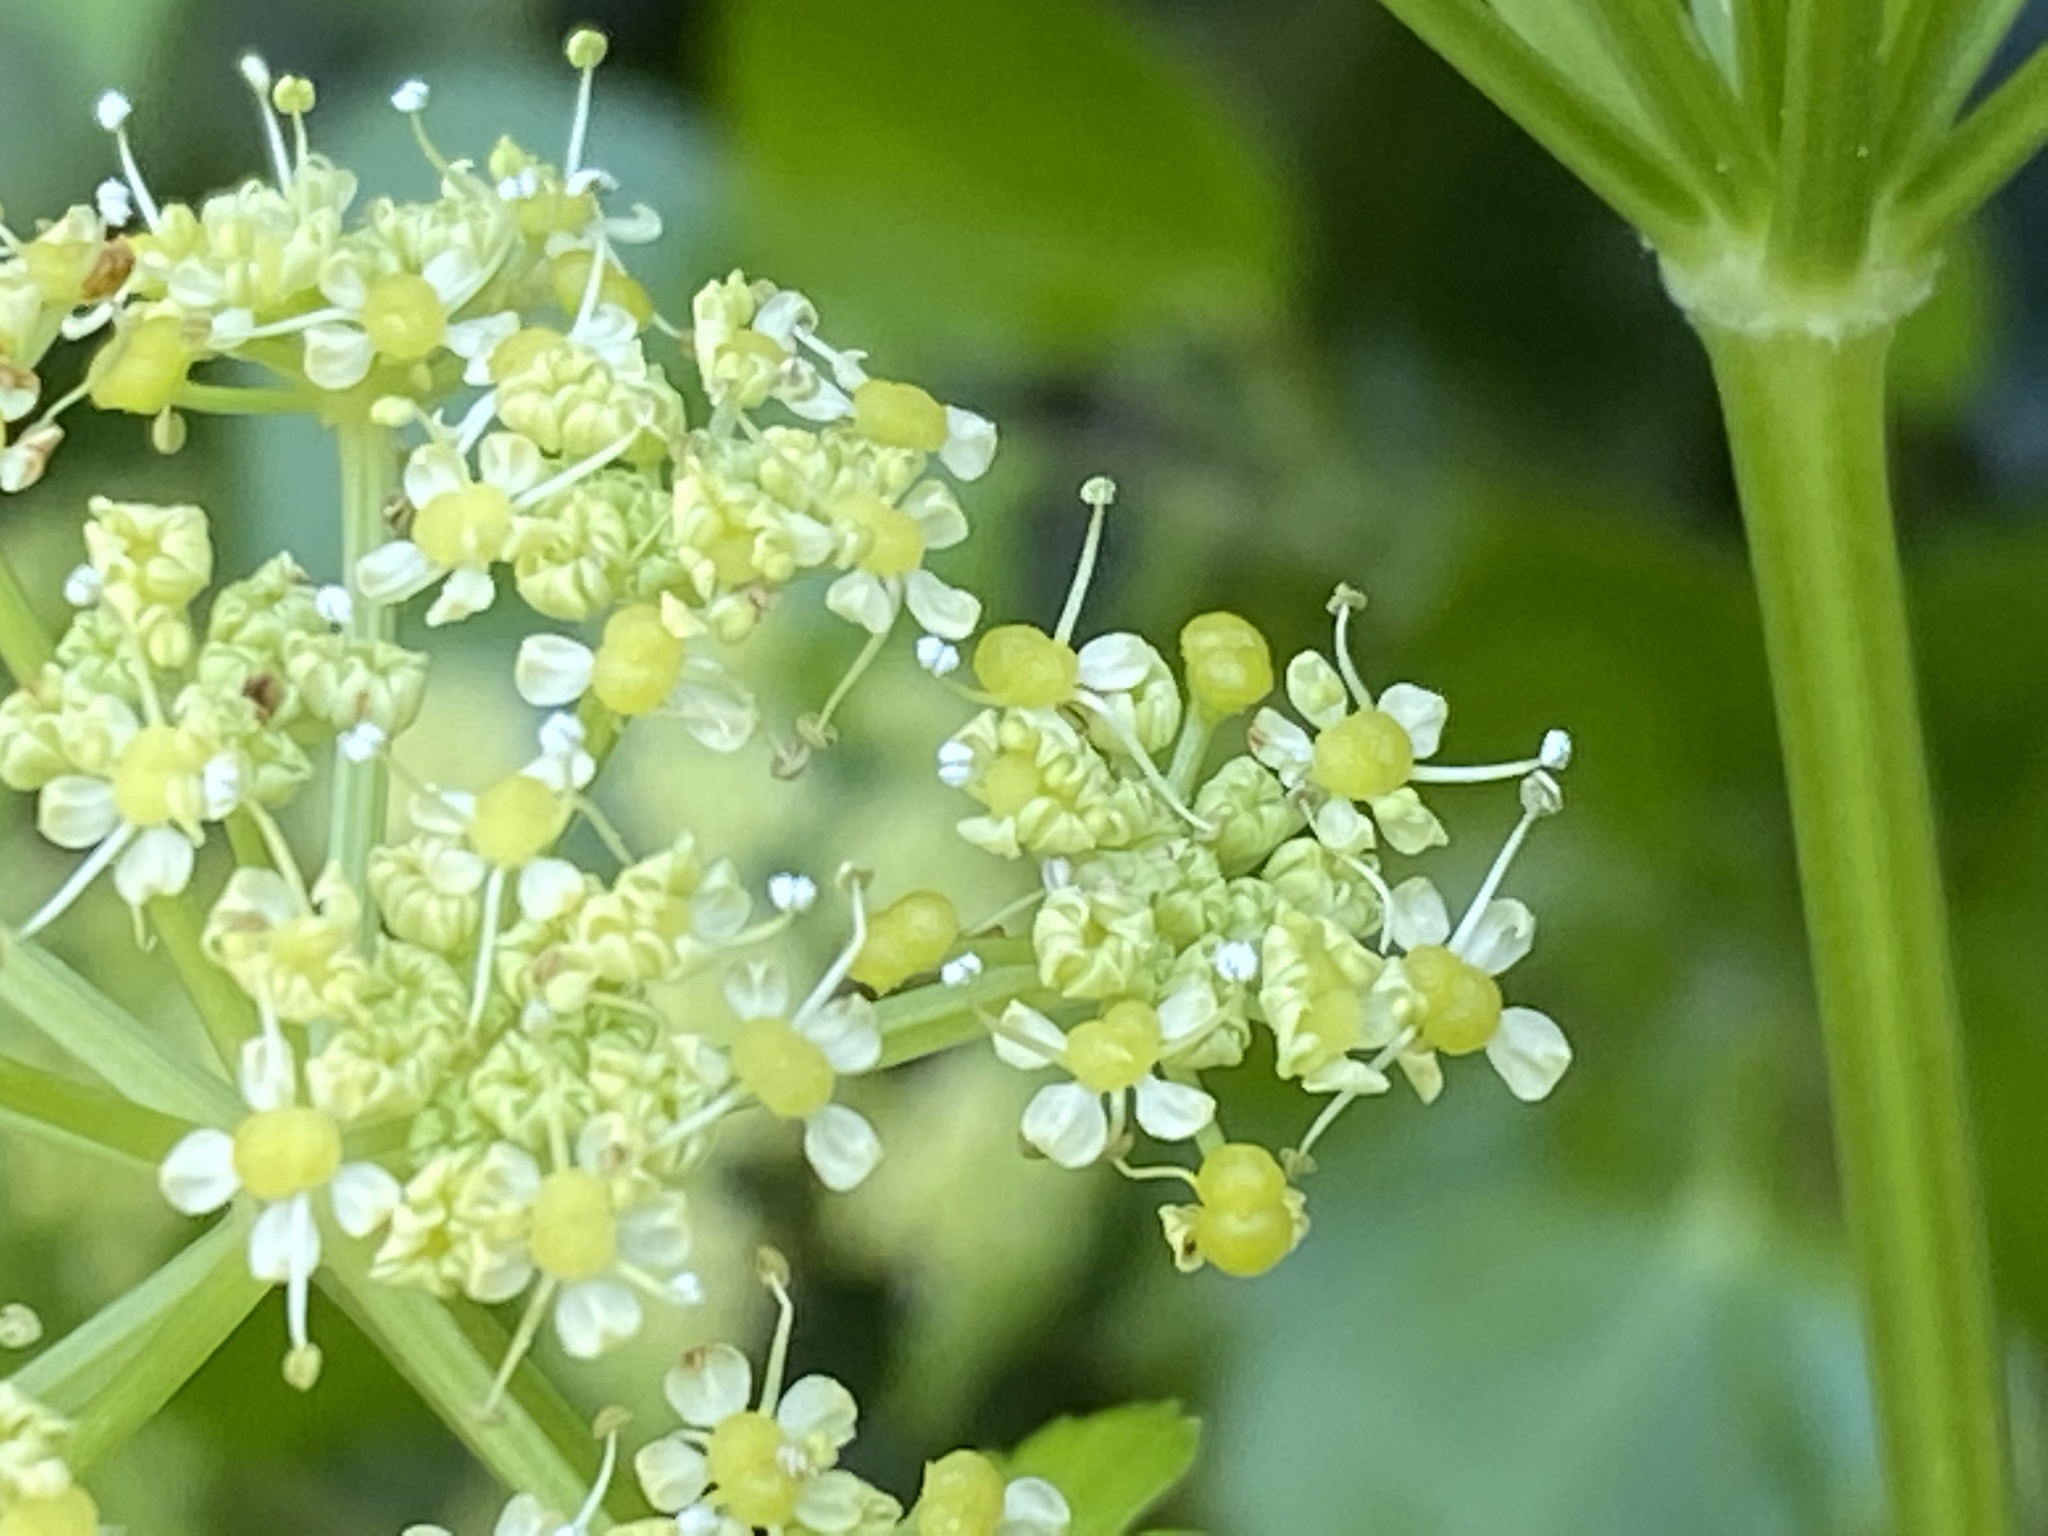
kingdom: Plantae
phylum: Tracheophyta
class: Magnoliopsida
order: Apiales
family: Apiaceae
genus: Smyrnium
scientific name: Smyrnium olusatrum
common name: Alexanders
